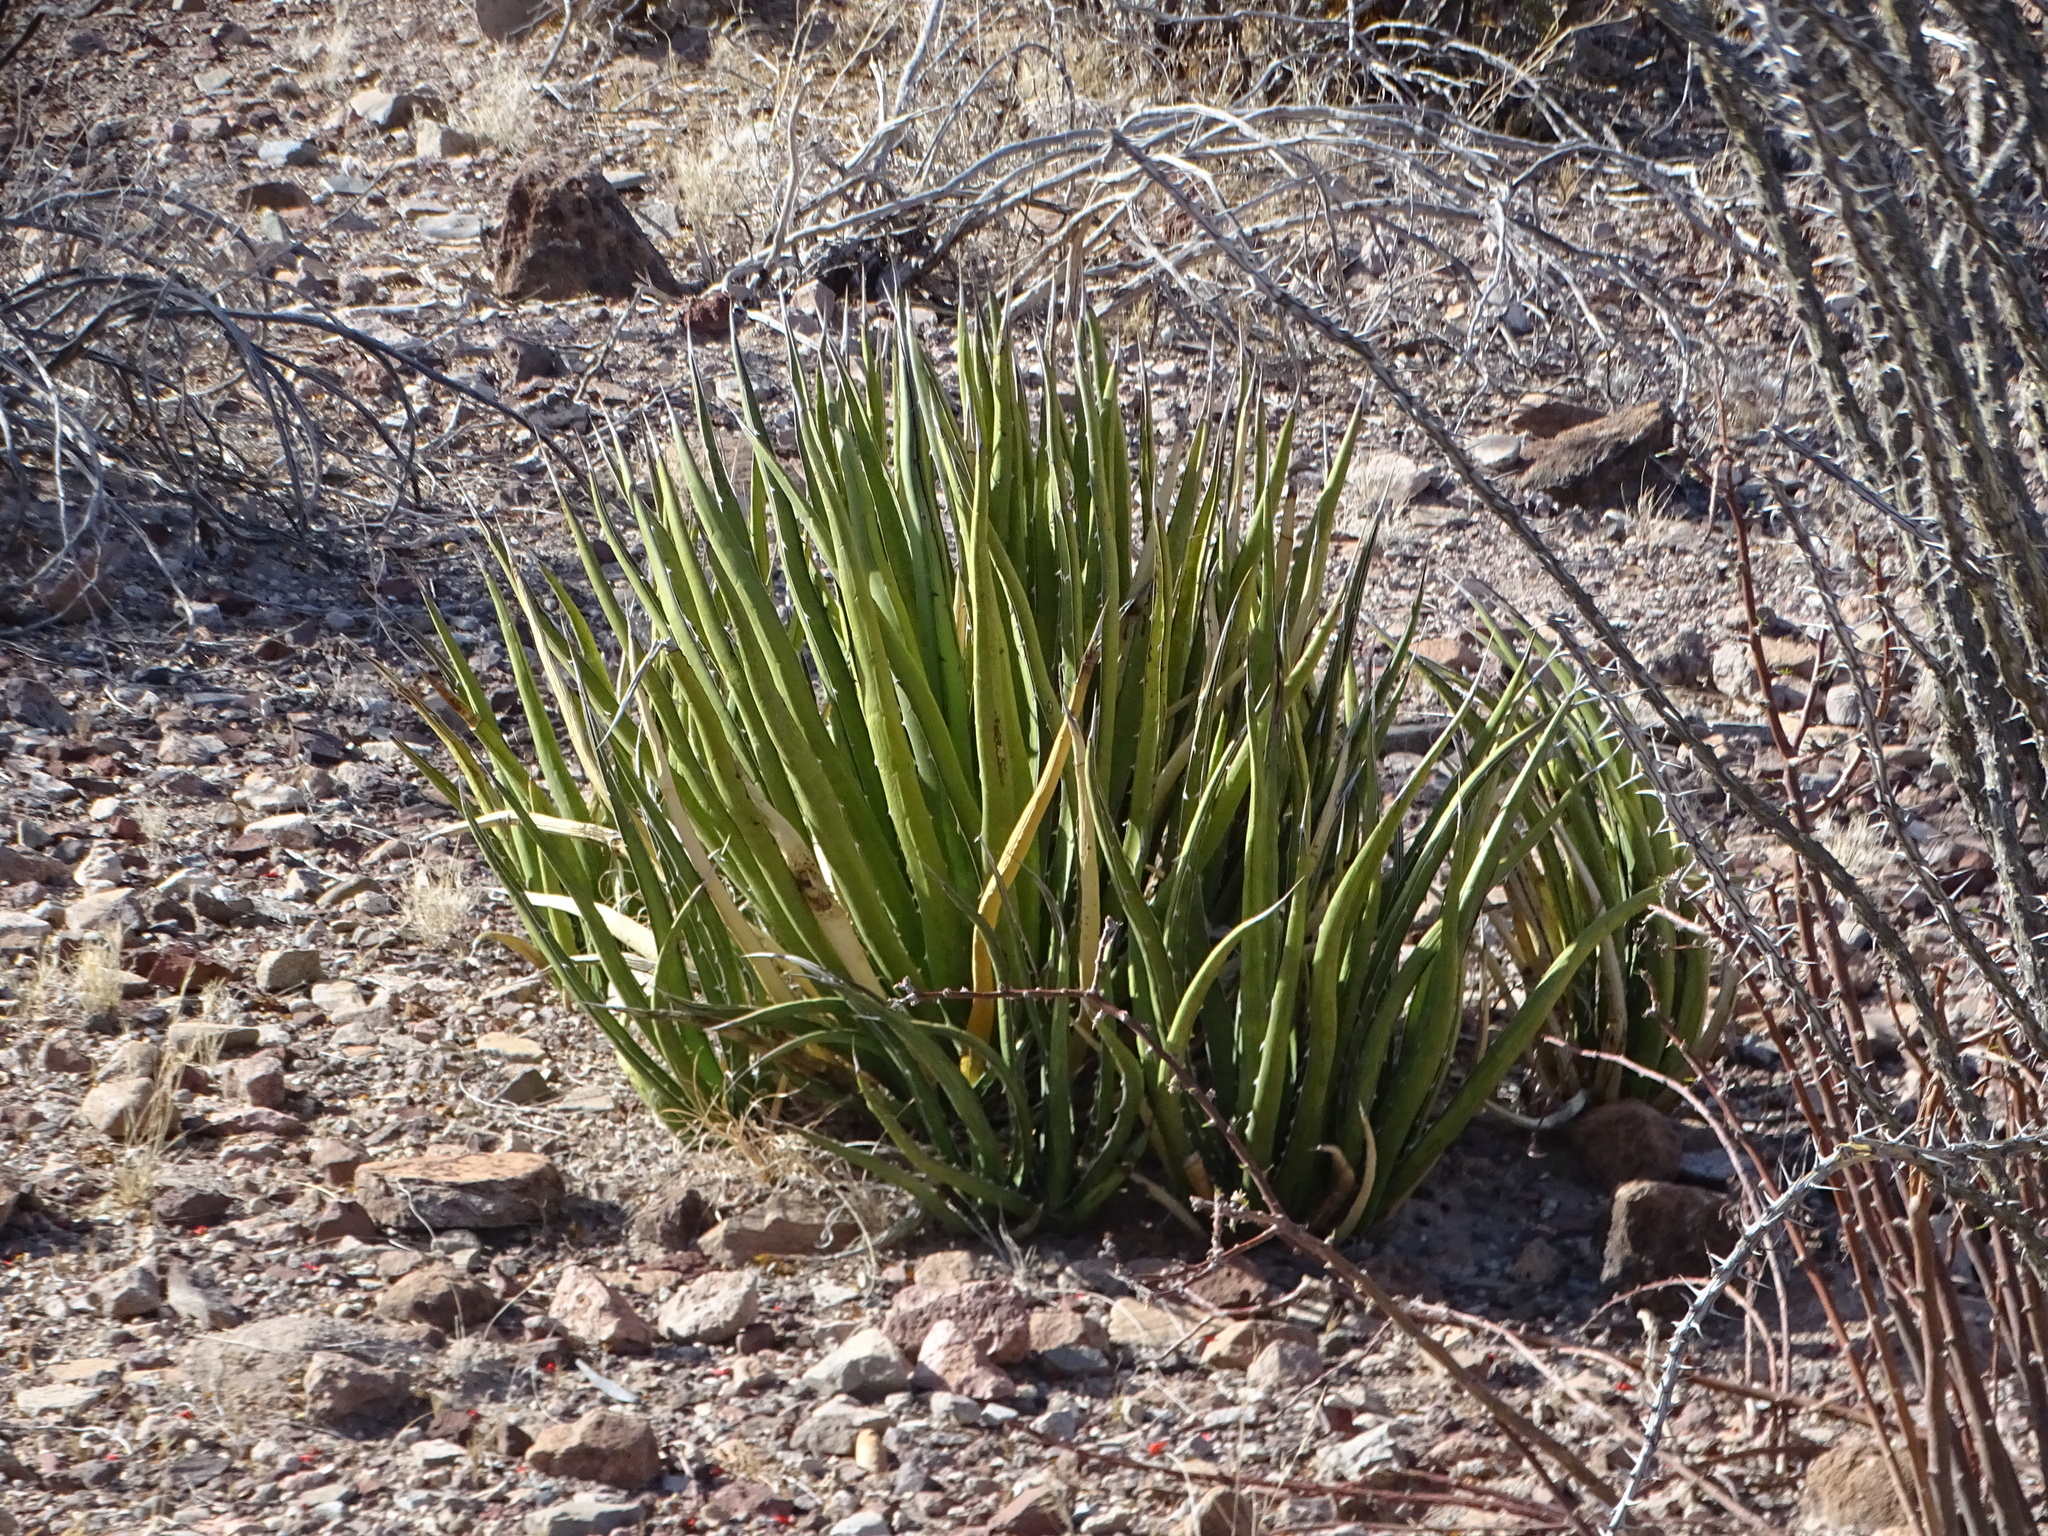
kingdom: Plantae
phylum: Tracheophyta
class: Liliopsida
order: Asparagales
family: Asparagaceae
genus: Agave
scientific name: Agave lechuguilla
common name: Lecheguilla agave
